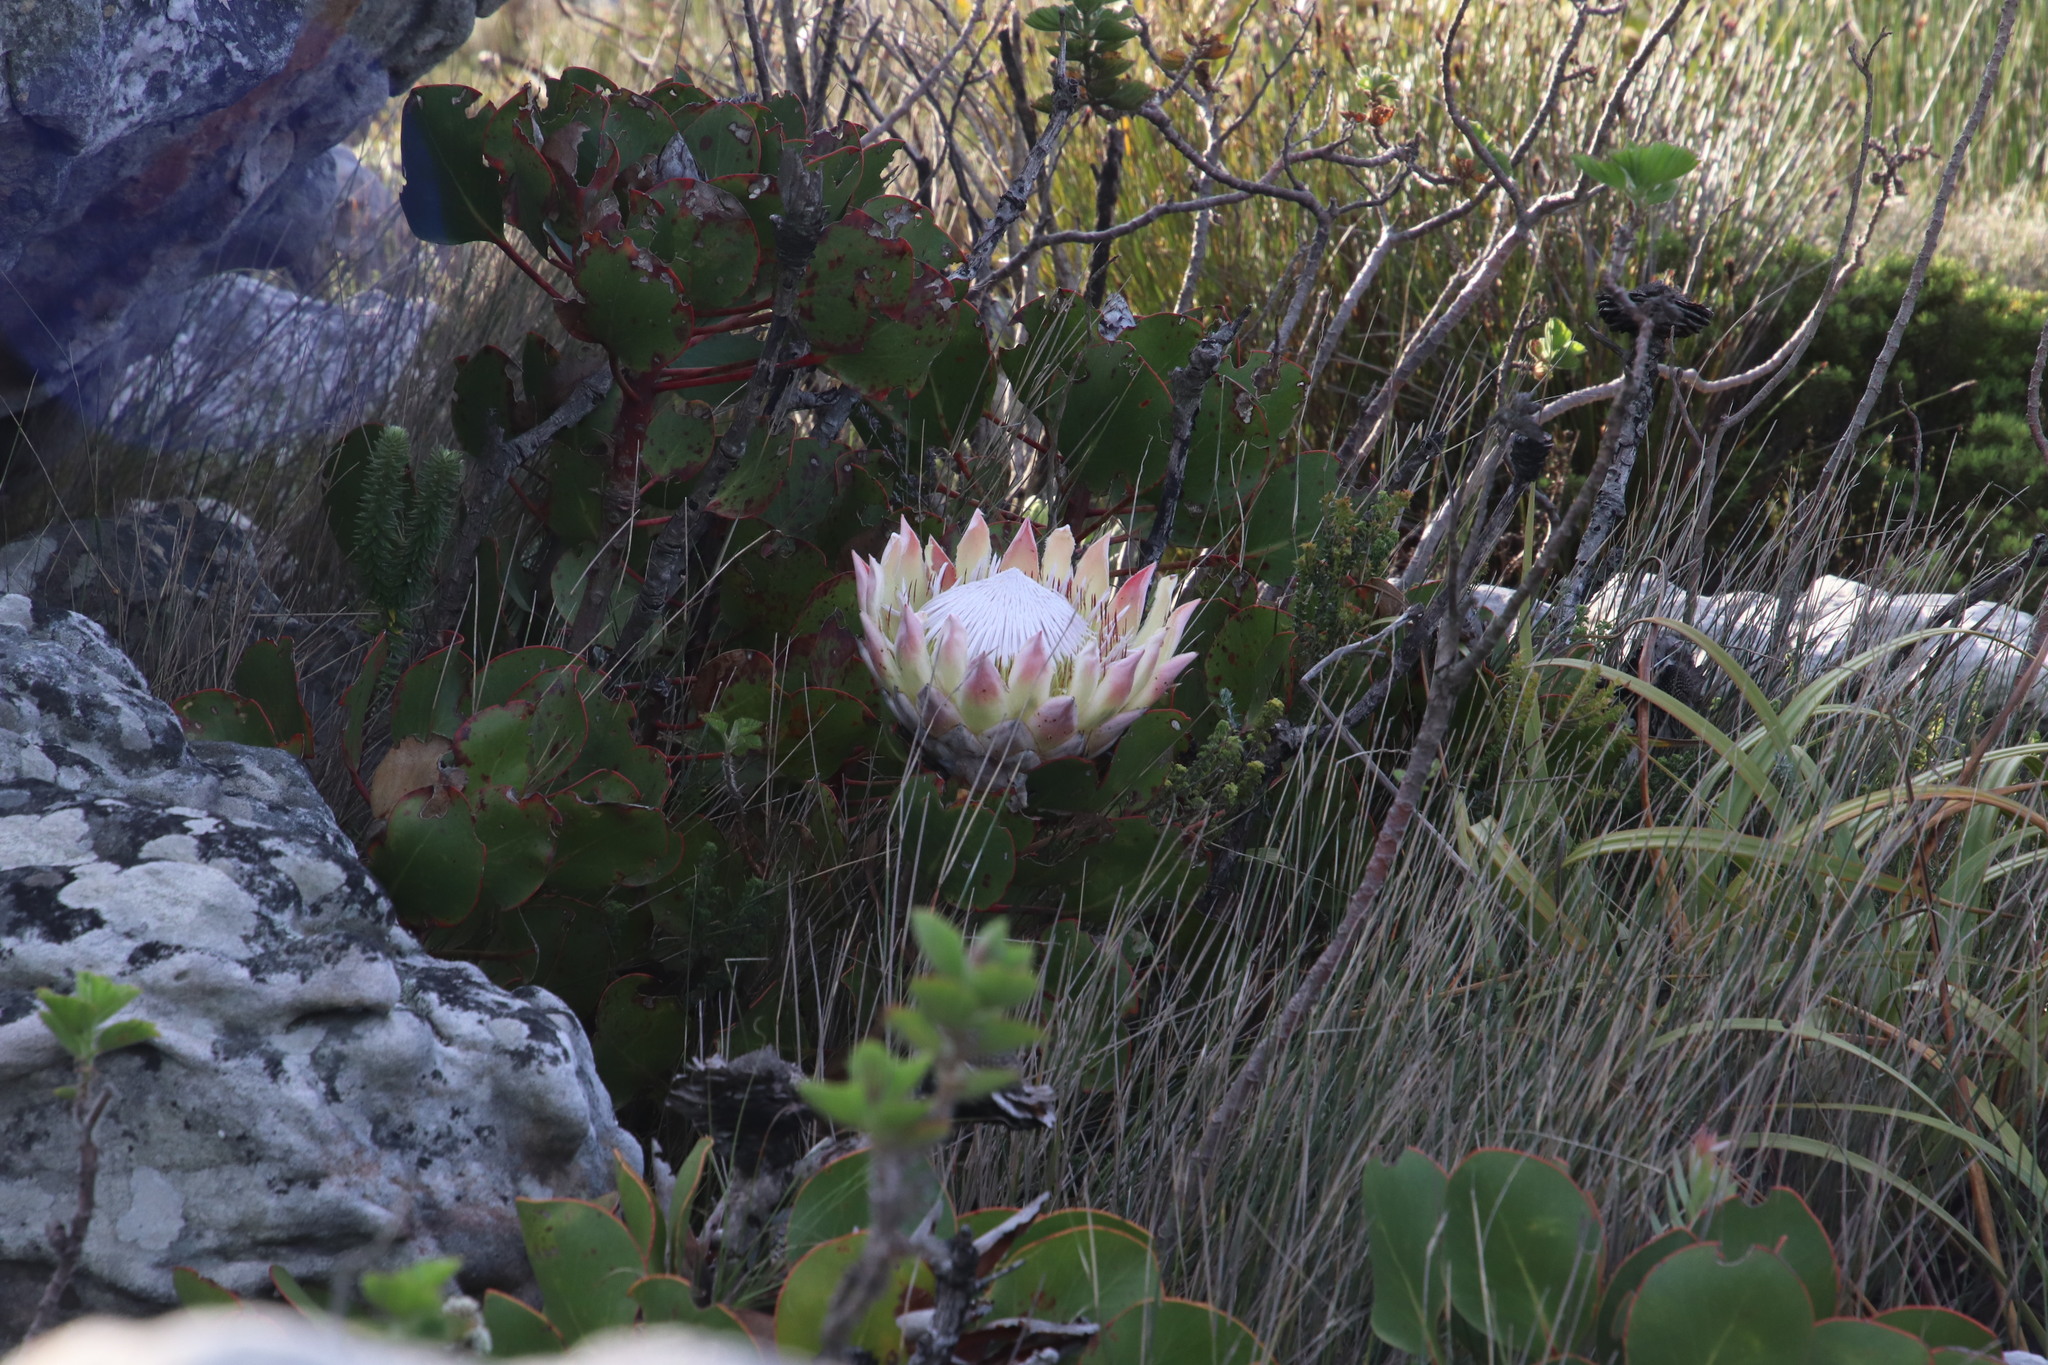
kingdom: Plantae
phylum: Tracheophyta
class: Magnoliopsida
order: Proteales
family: Proteaceae
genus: Protea
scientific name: Protea cynaroides
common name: King protea
